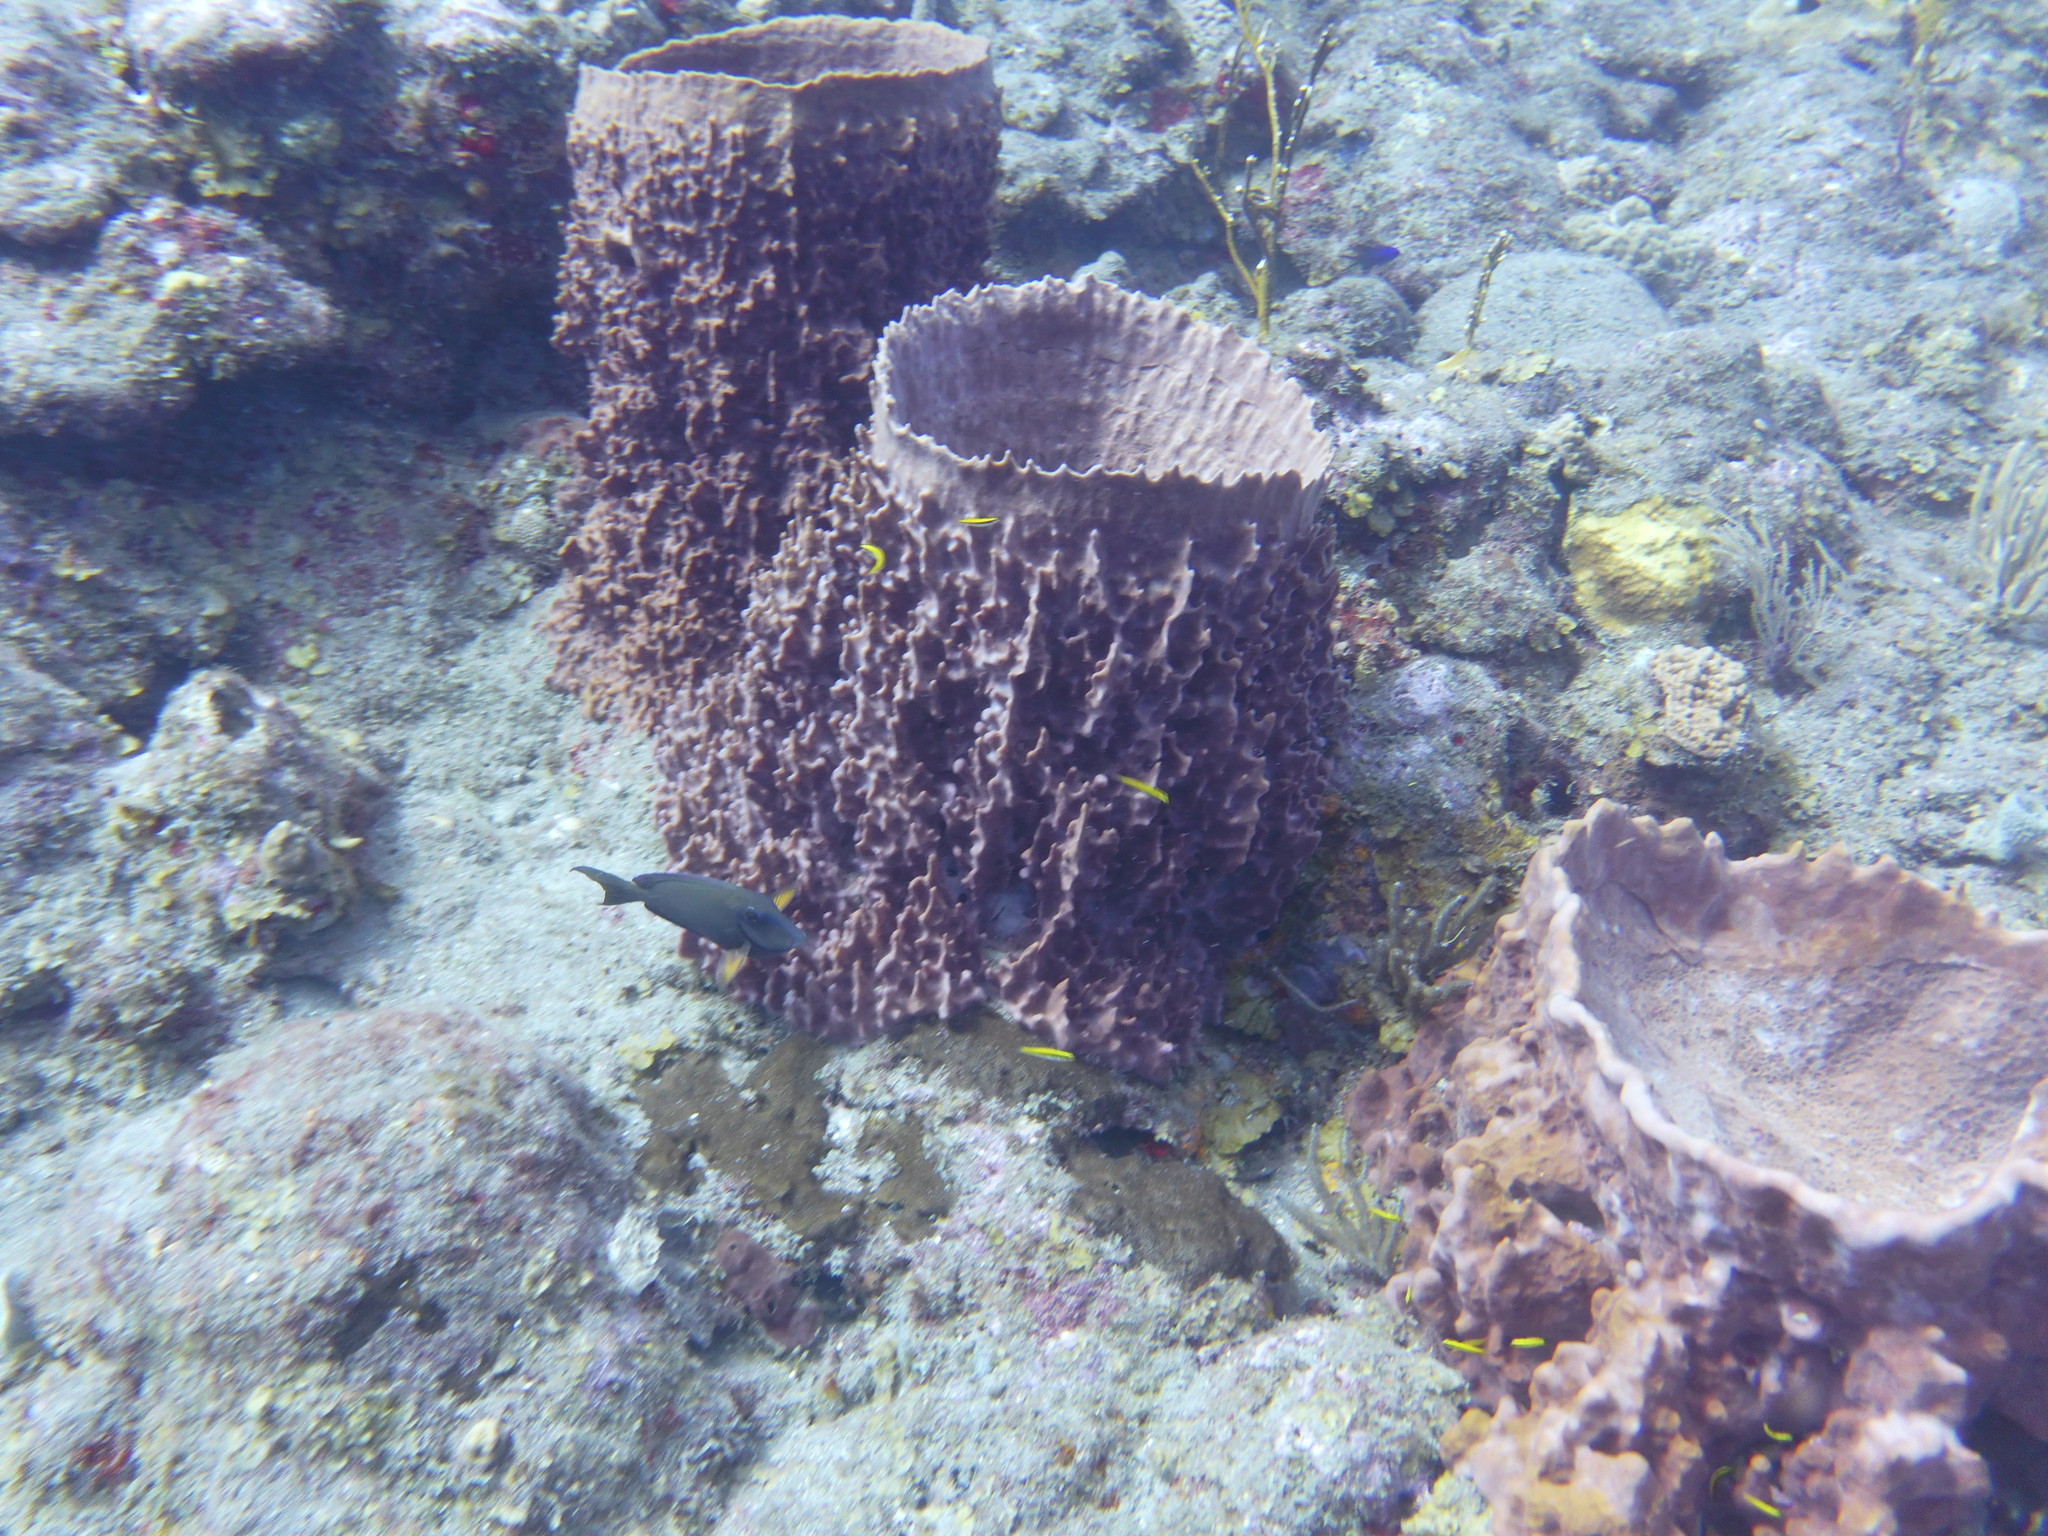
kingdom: Animalia
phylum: Porifera
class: Demospongiae
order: Haplosclerida
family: Petrosiidae
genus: Xestospongia
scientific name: Xestospongia muta
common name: Giant barrel sponge
